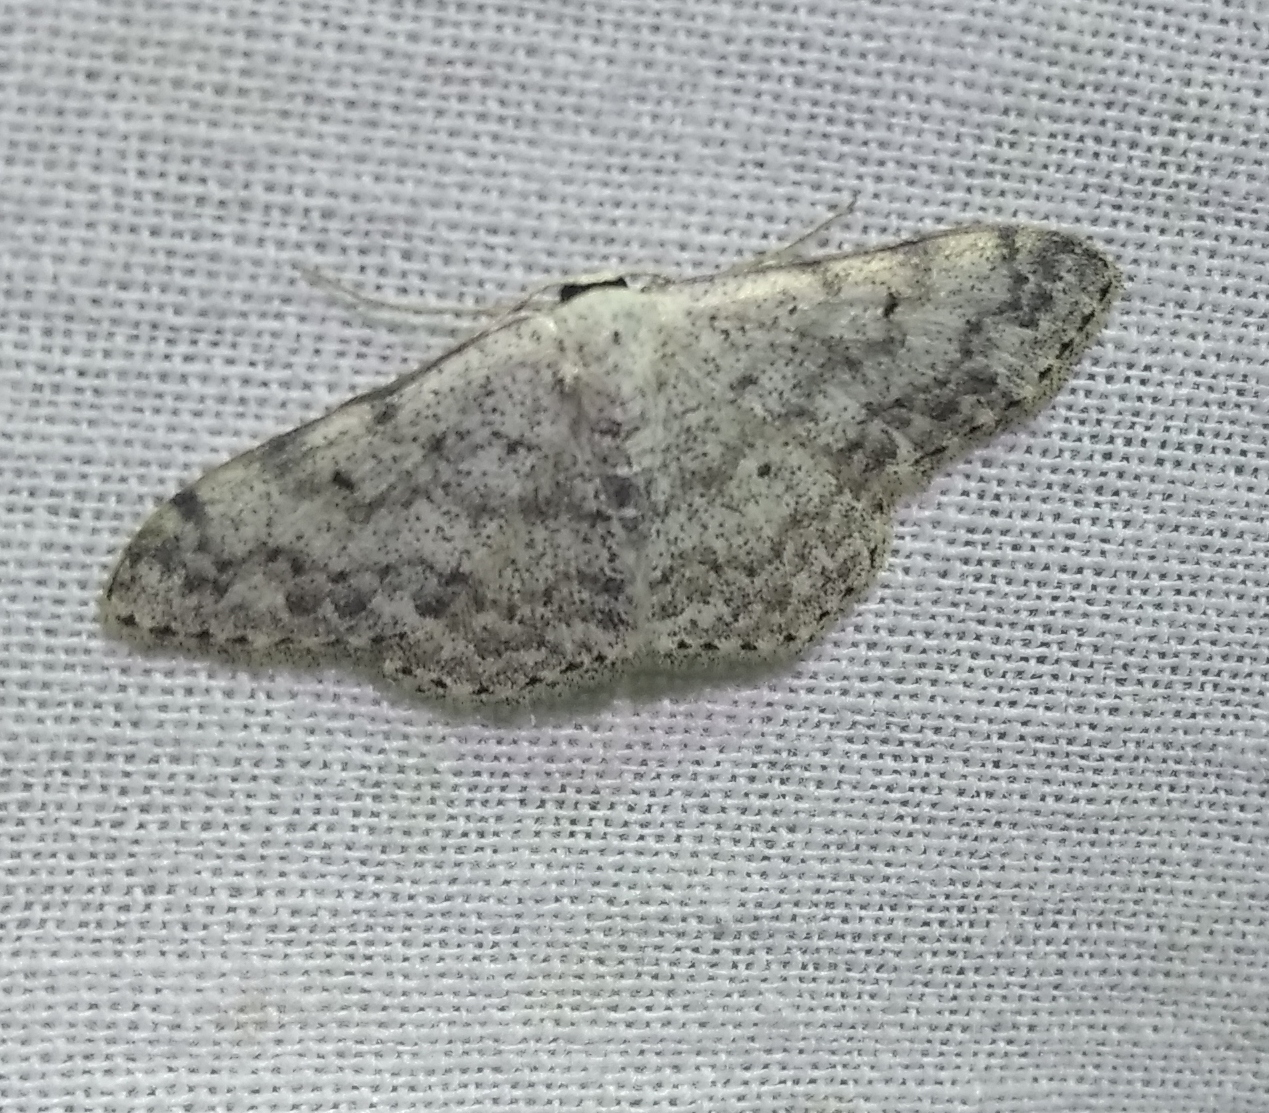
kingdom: Animalia
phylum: Arthropoda
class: Insecta
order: Lepidoptera
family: Geometridae
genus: Scopula
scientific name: Scopula marginepunctata
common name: Mullein wave
